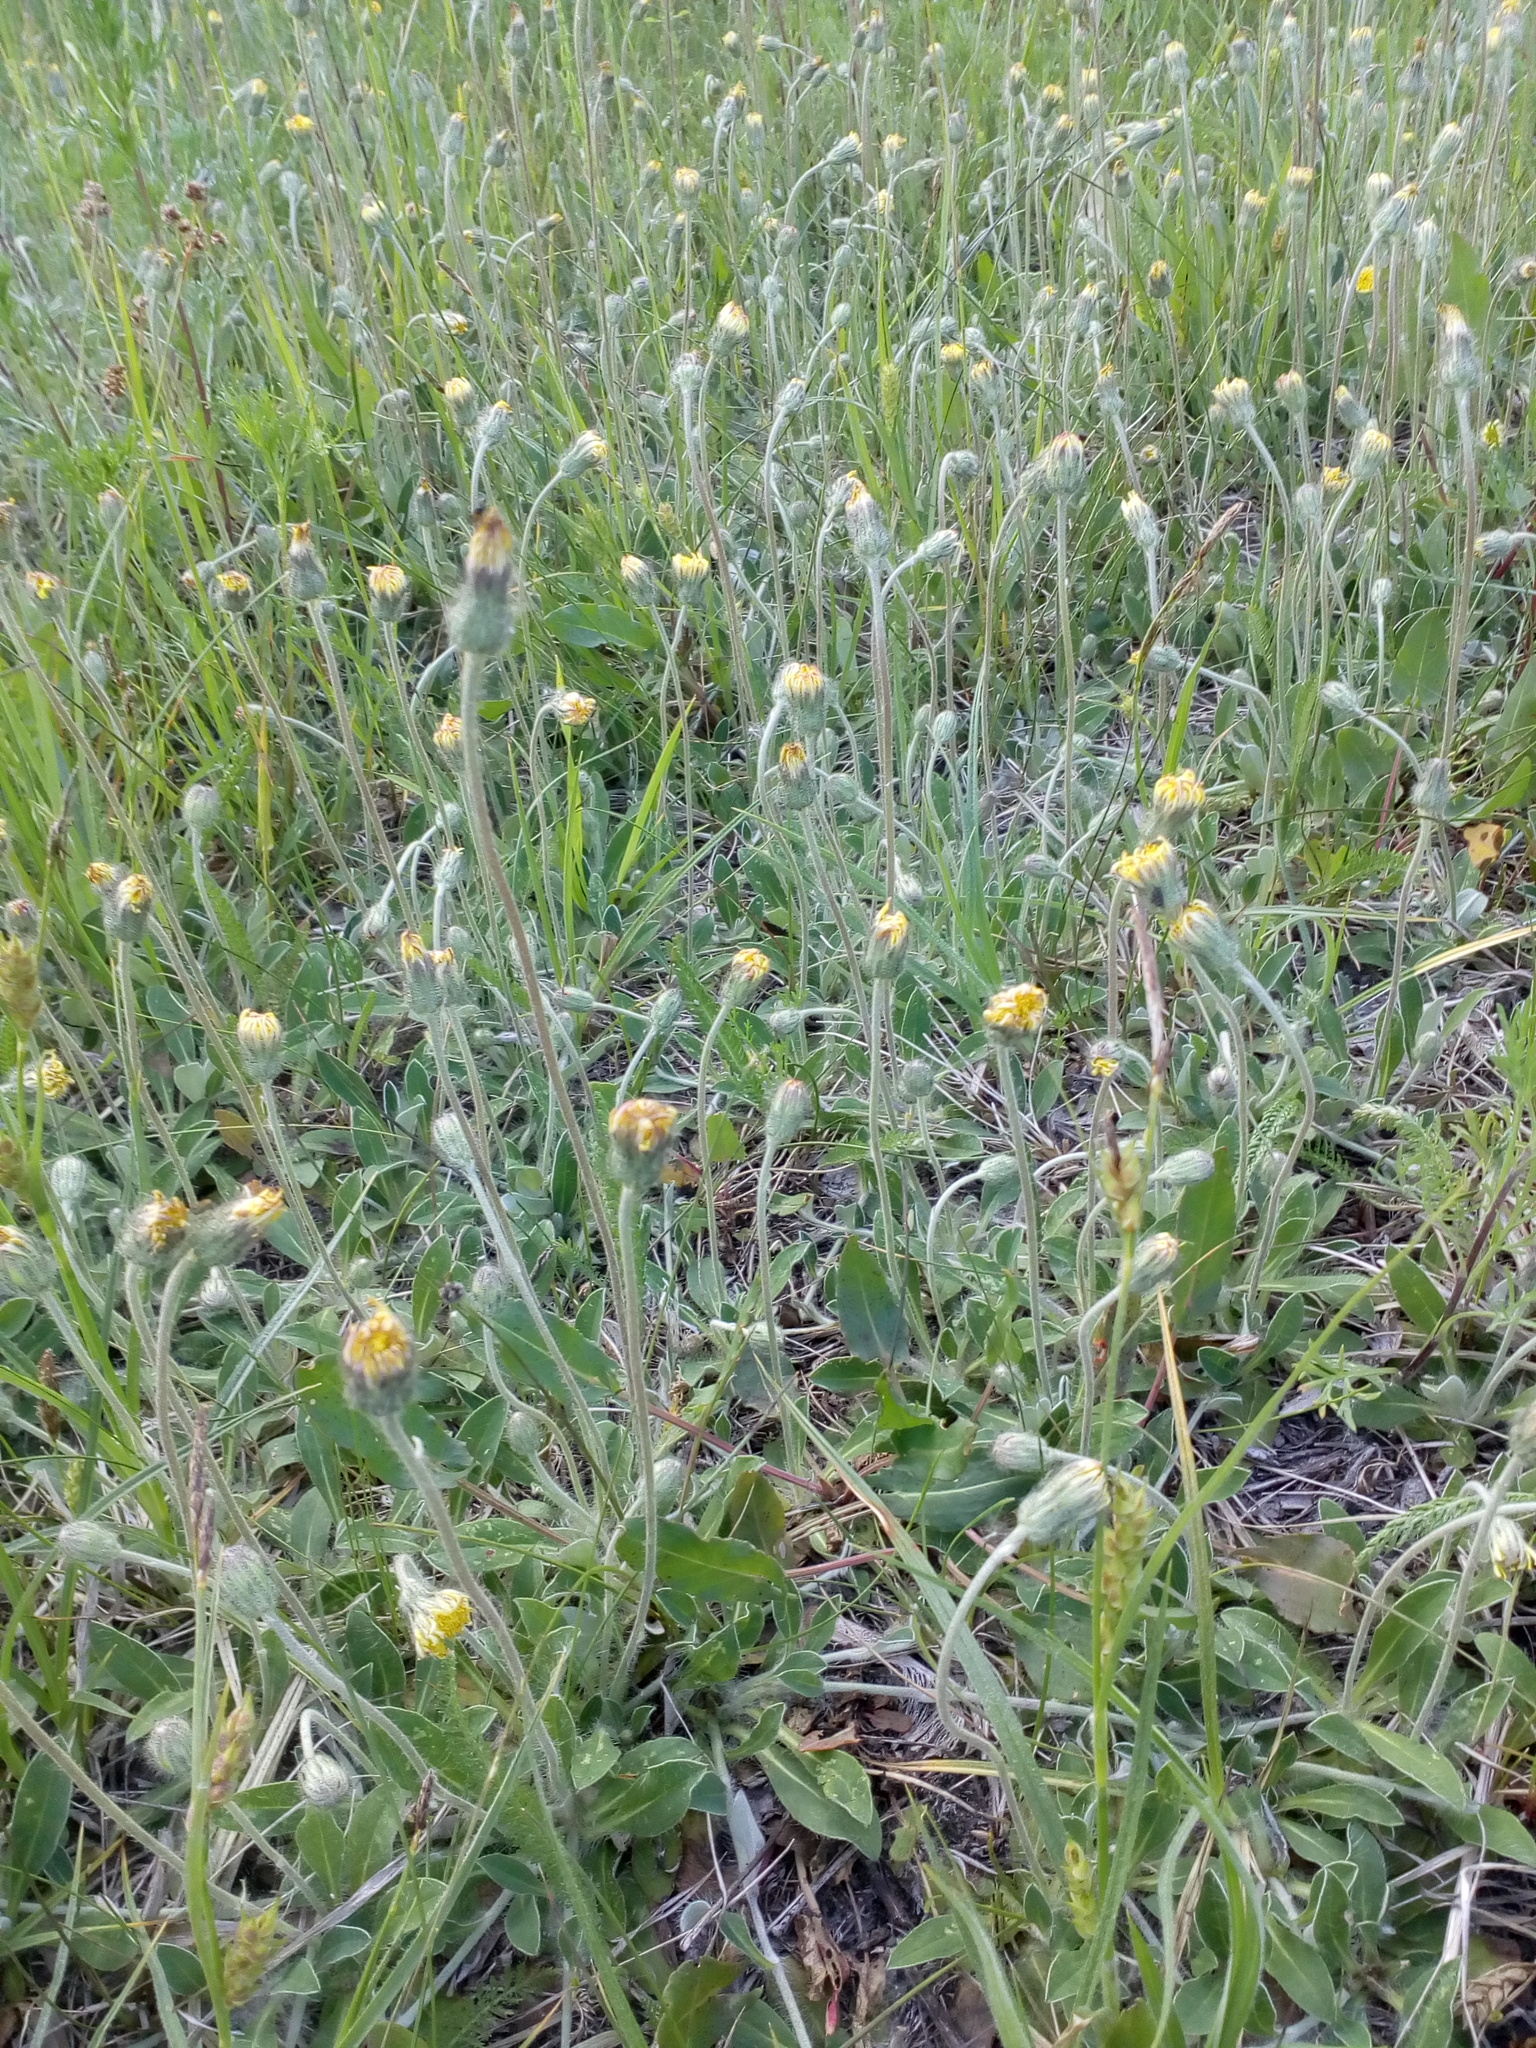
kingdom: Plantae
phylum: Tracheophyta
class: Magnoliopsida
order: Asterales
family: Asteraceae
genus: Pilosella
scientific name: Pilosella officinarum
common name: Mouse-ear hawkweed
